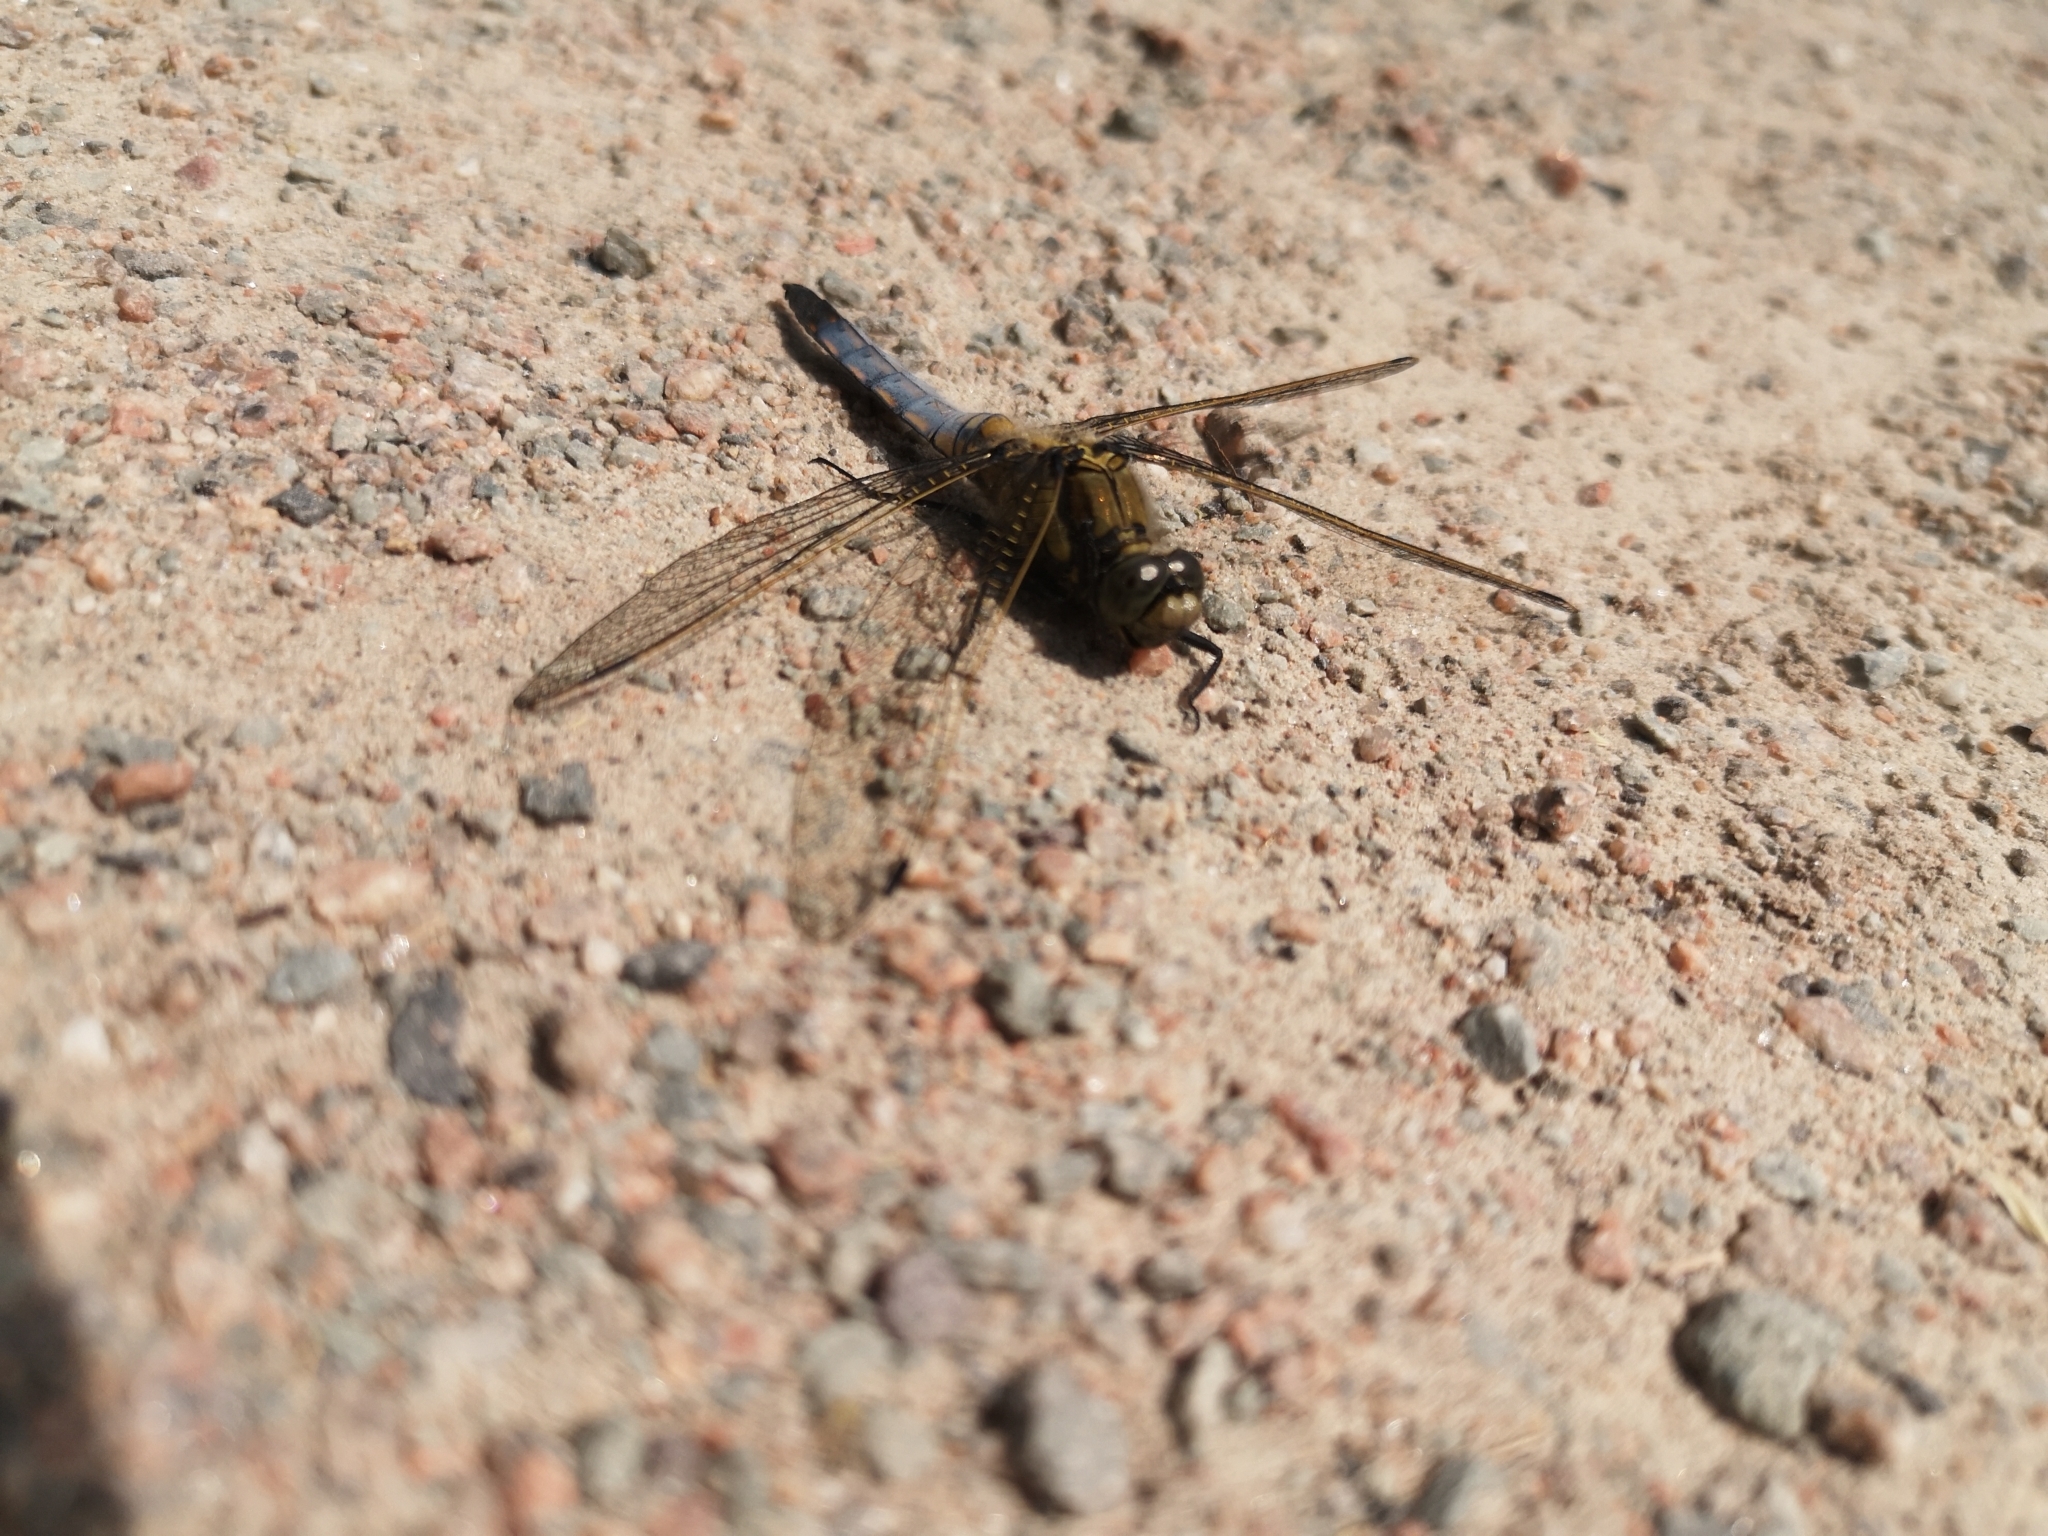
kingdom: Animalia
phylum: Arthropoda
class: Insecta
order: Odonata
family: Libellulidae
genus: Orthetrum
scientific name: Orthetrum cancellatum
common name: Black-tailed skimmer
